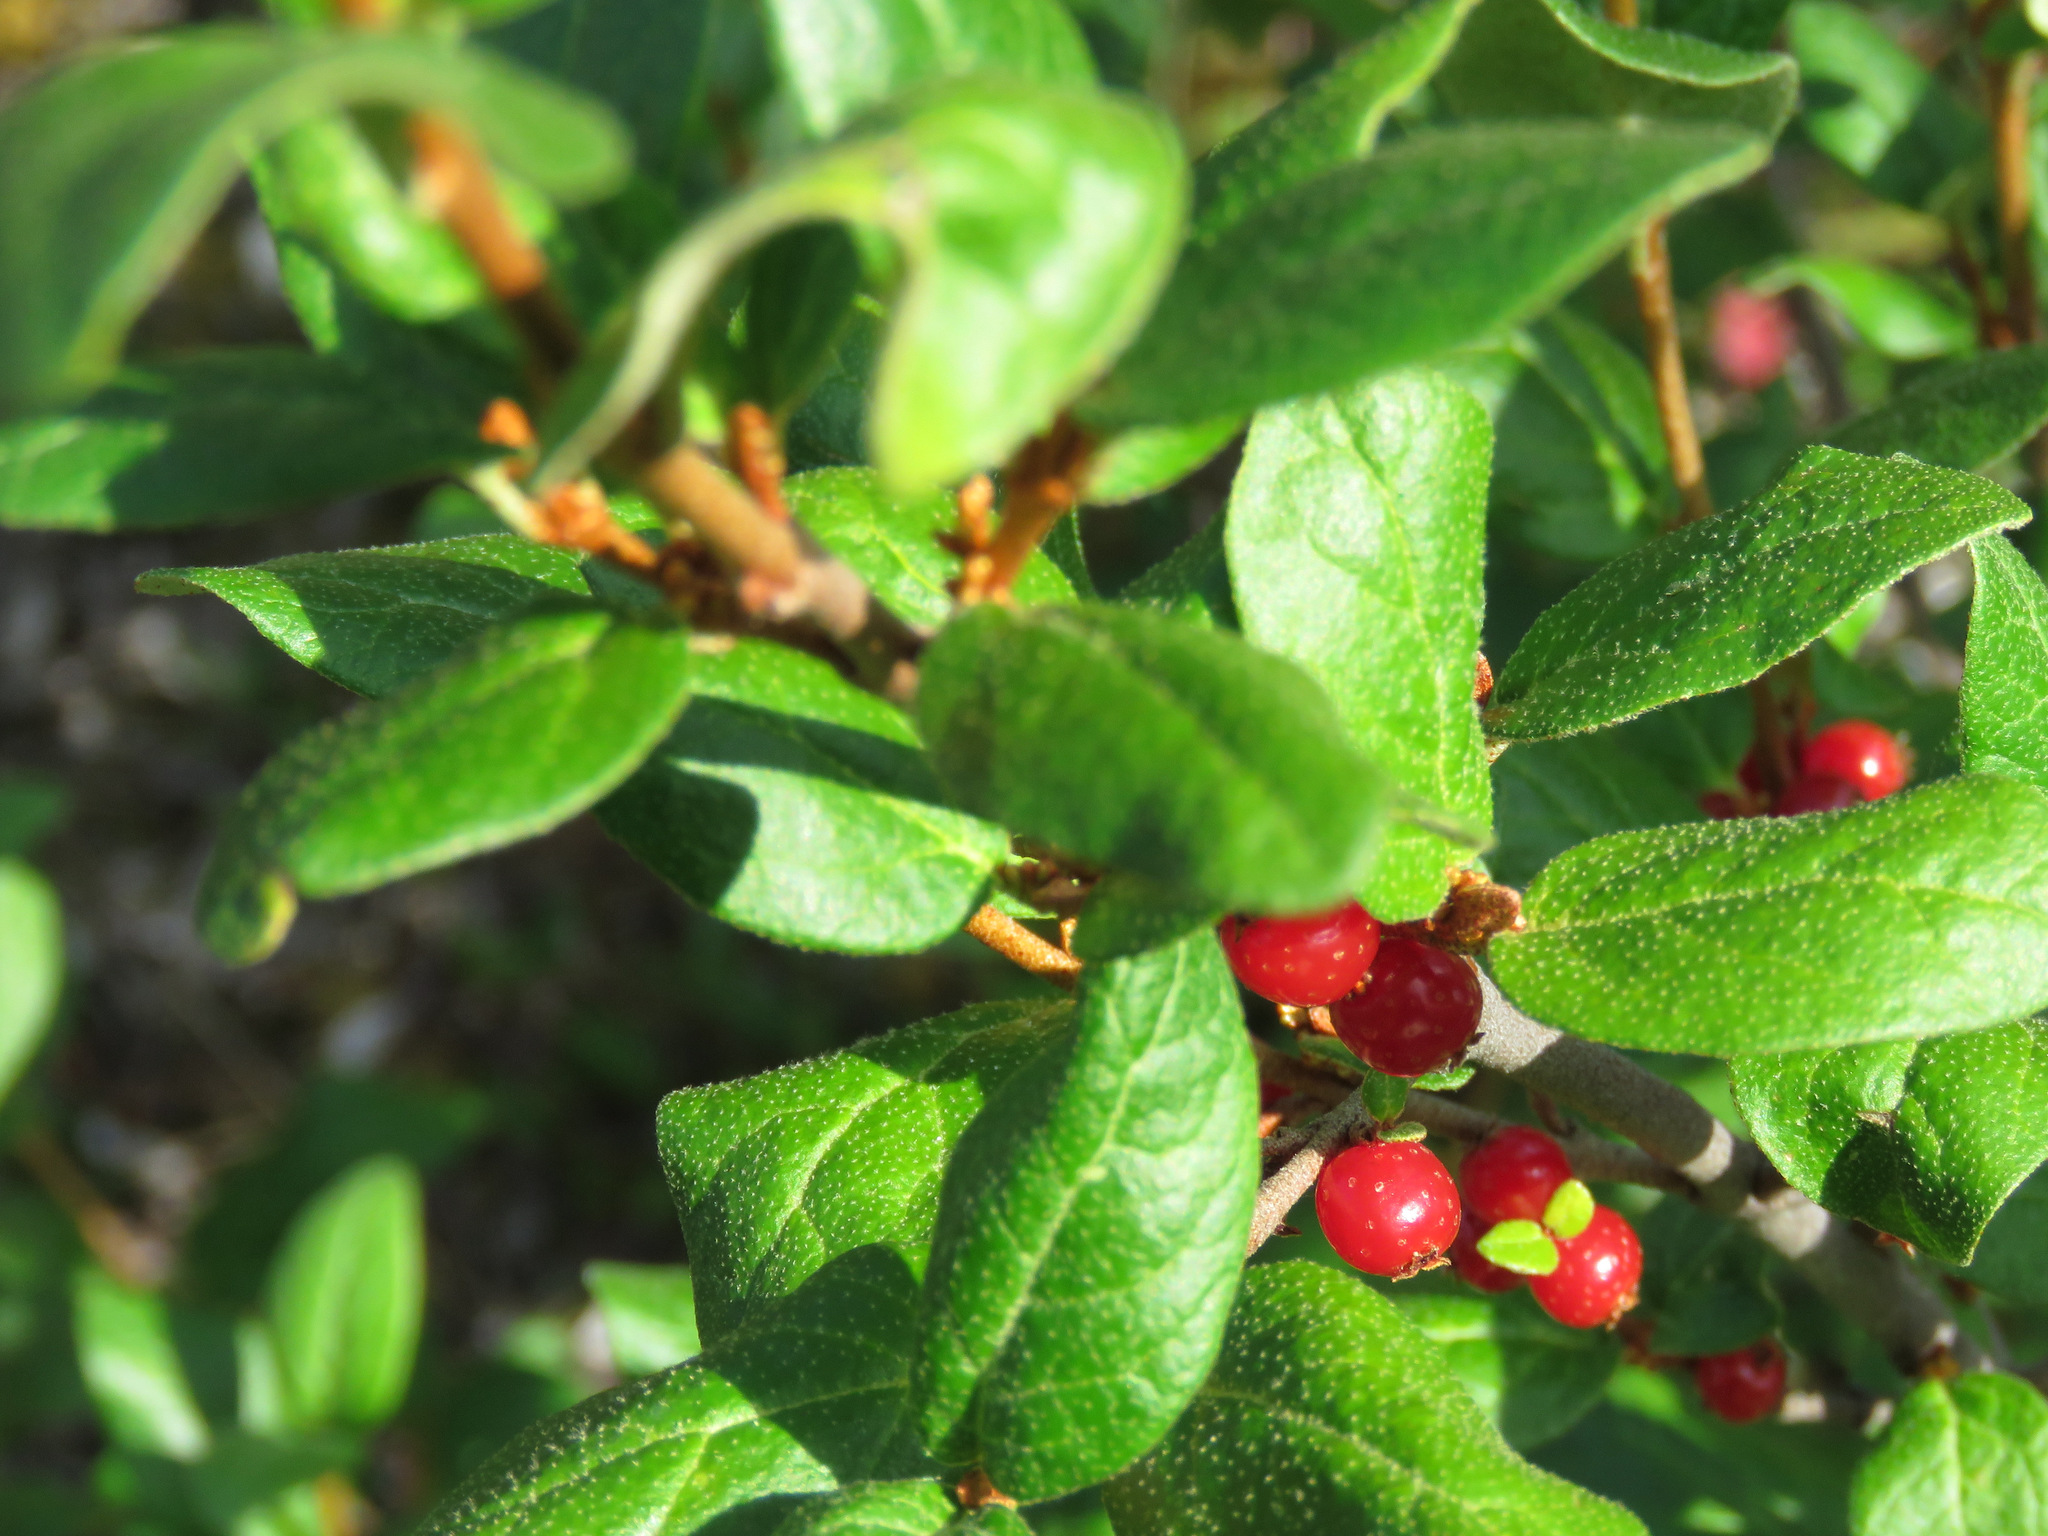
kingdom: Plantae
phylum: Tracheophyta
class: Magnoliopsida
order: Rosales
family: Elaeagnaceae
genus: Shepherdia
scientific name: Shepherdia canadensis
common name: Soapberry
